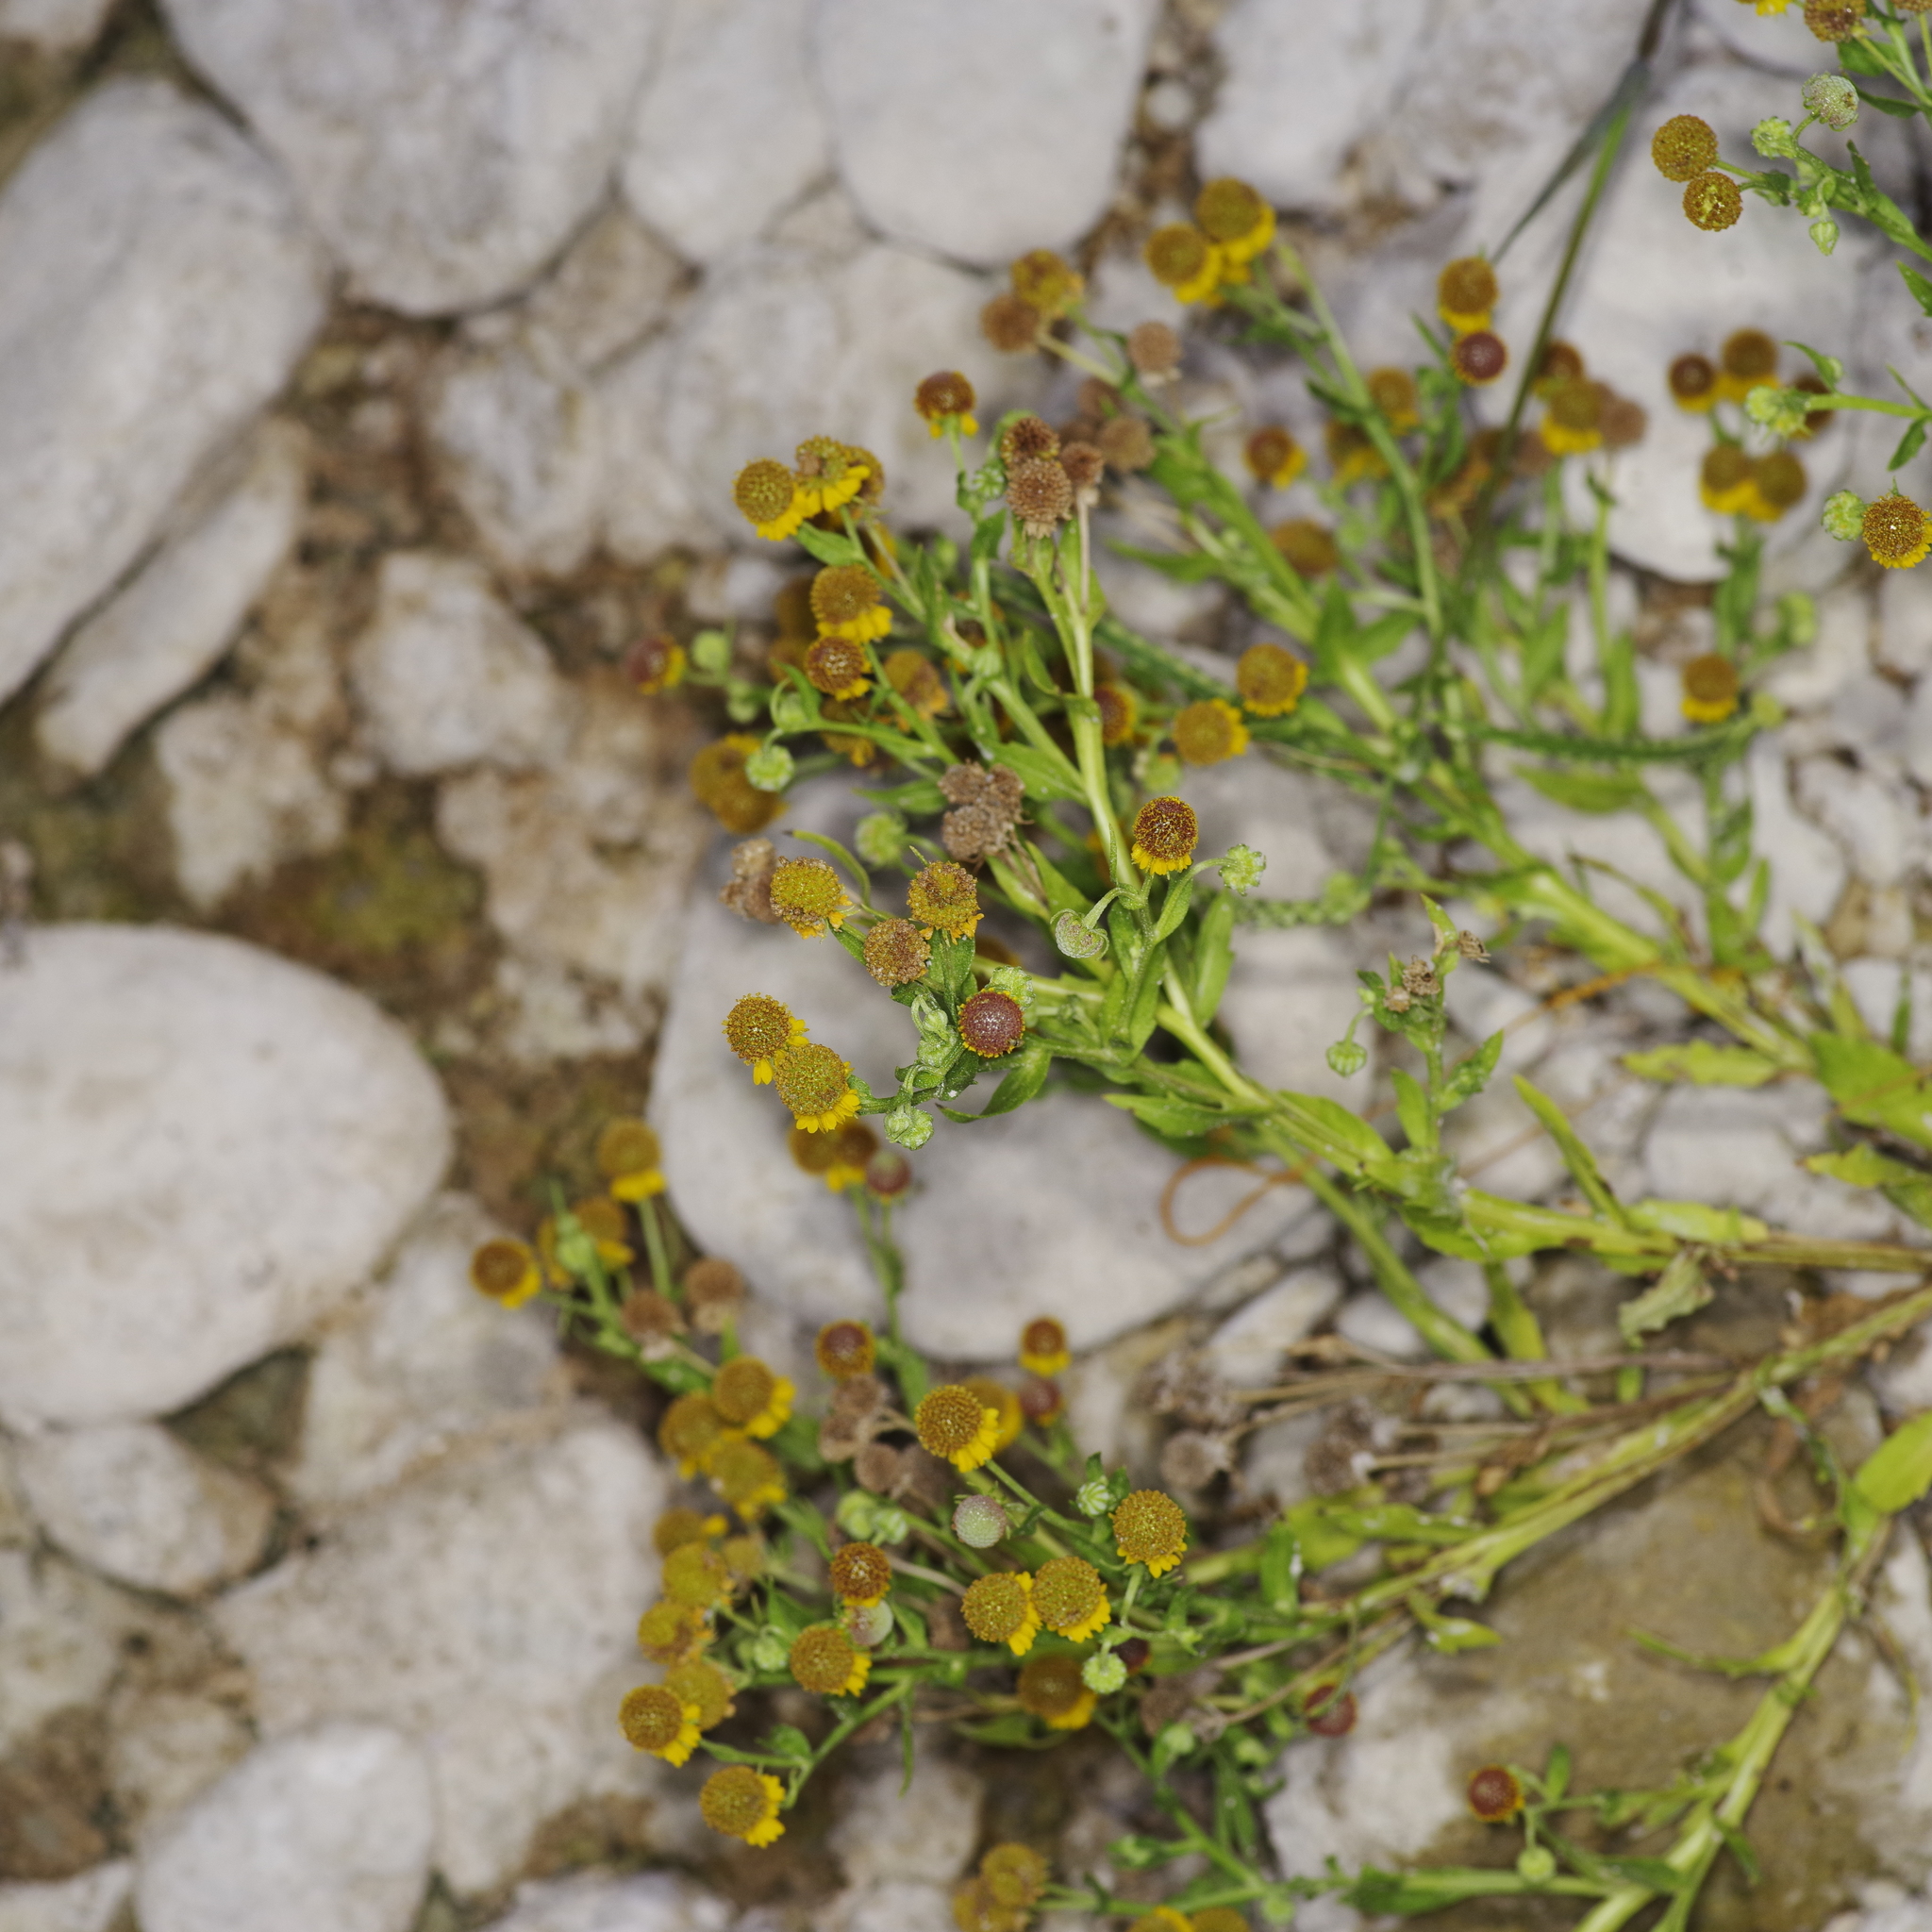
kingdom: Plantae
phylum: Tracheophyta
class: Magnoliopsida
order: Asterales
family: Asteraceae
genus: Helenium
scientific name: Helenium microcephalum
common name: Smallhead sneezeweed
